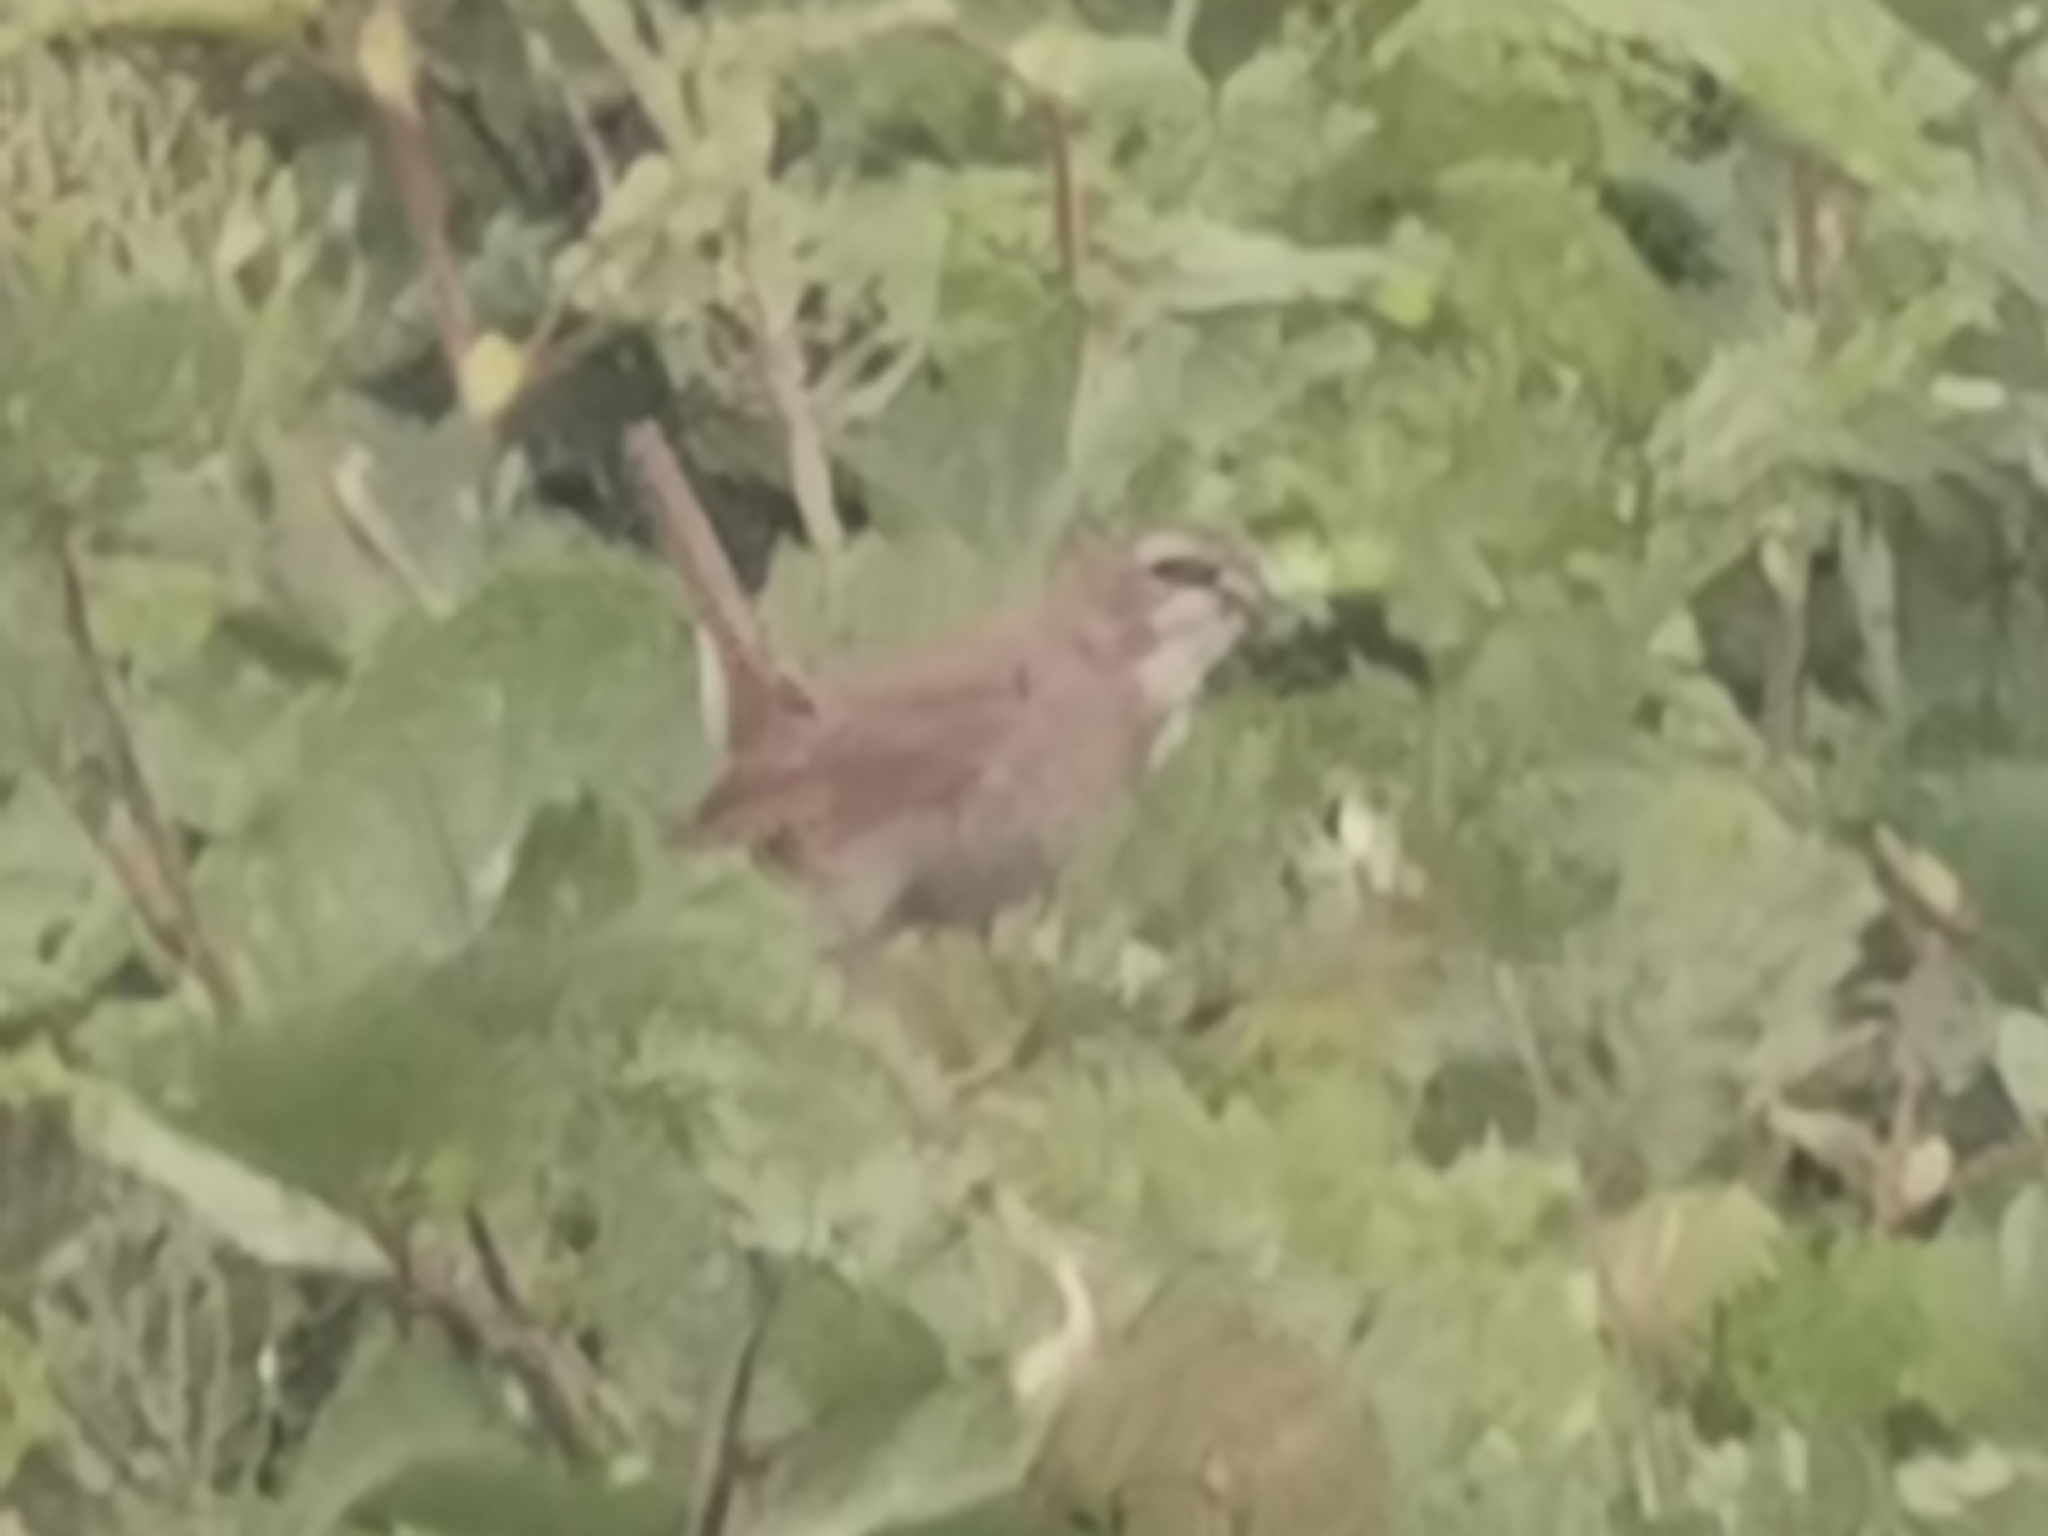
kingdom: Animalia
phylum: Chordata
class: Aves
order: Passeriformes
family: Muscicapidae
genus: Luscinia
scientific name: Luscinia calliope
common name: Siberian rubythroat
